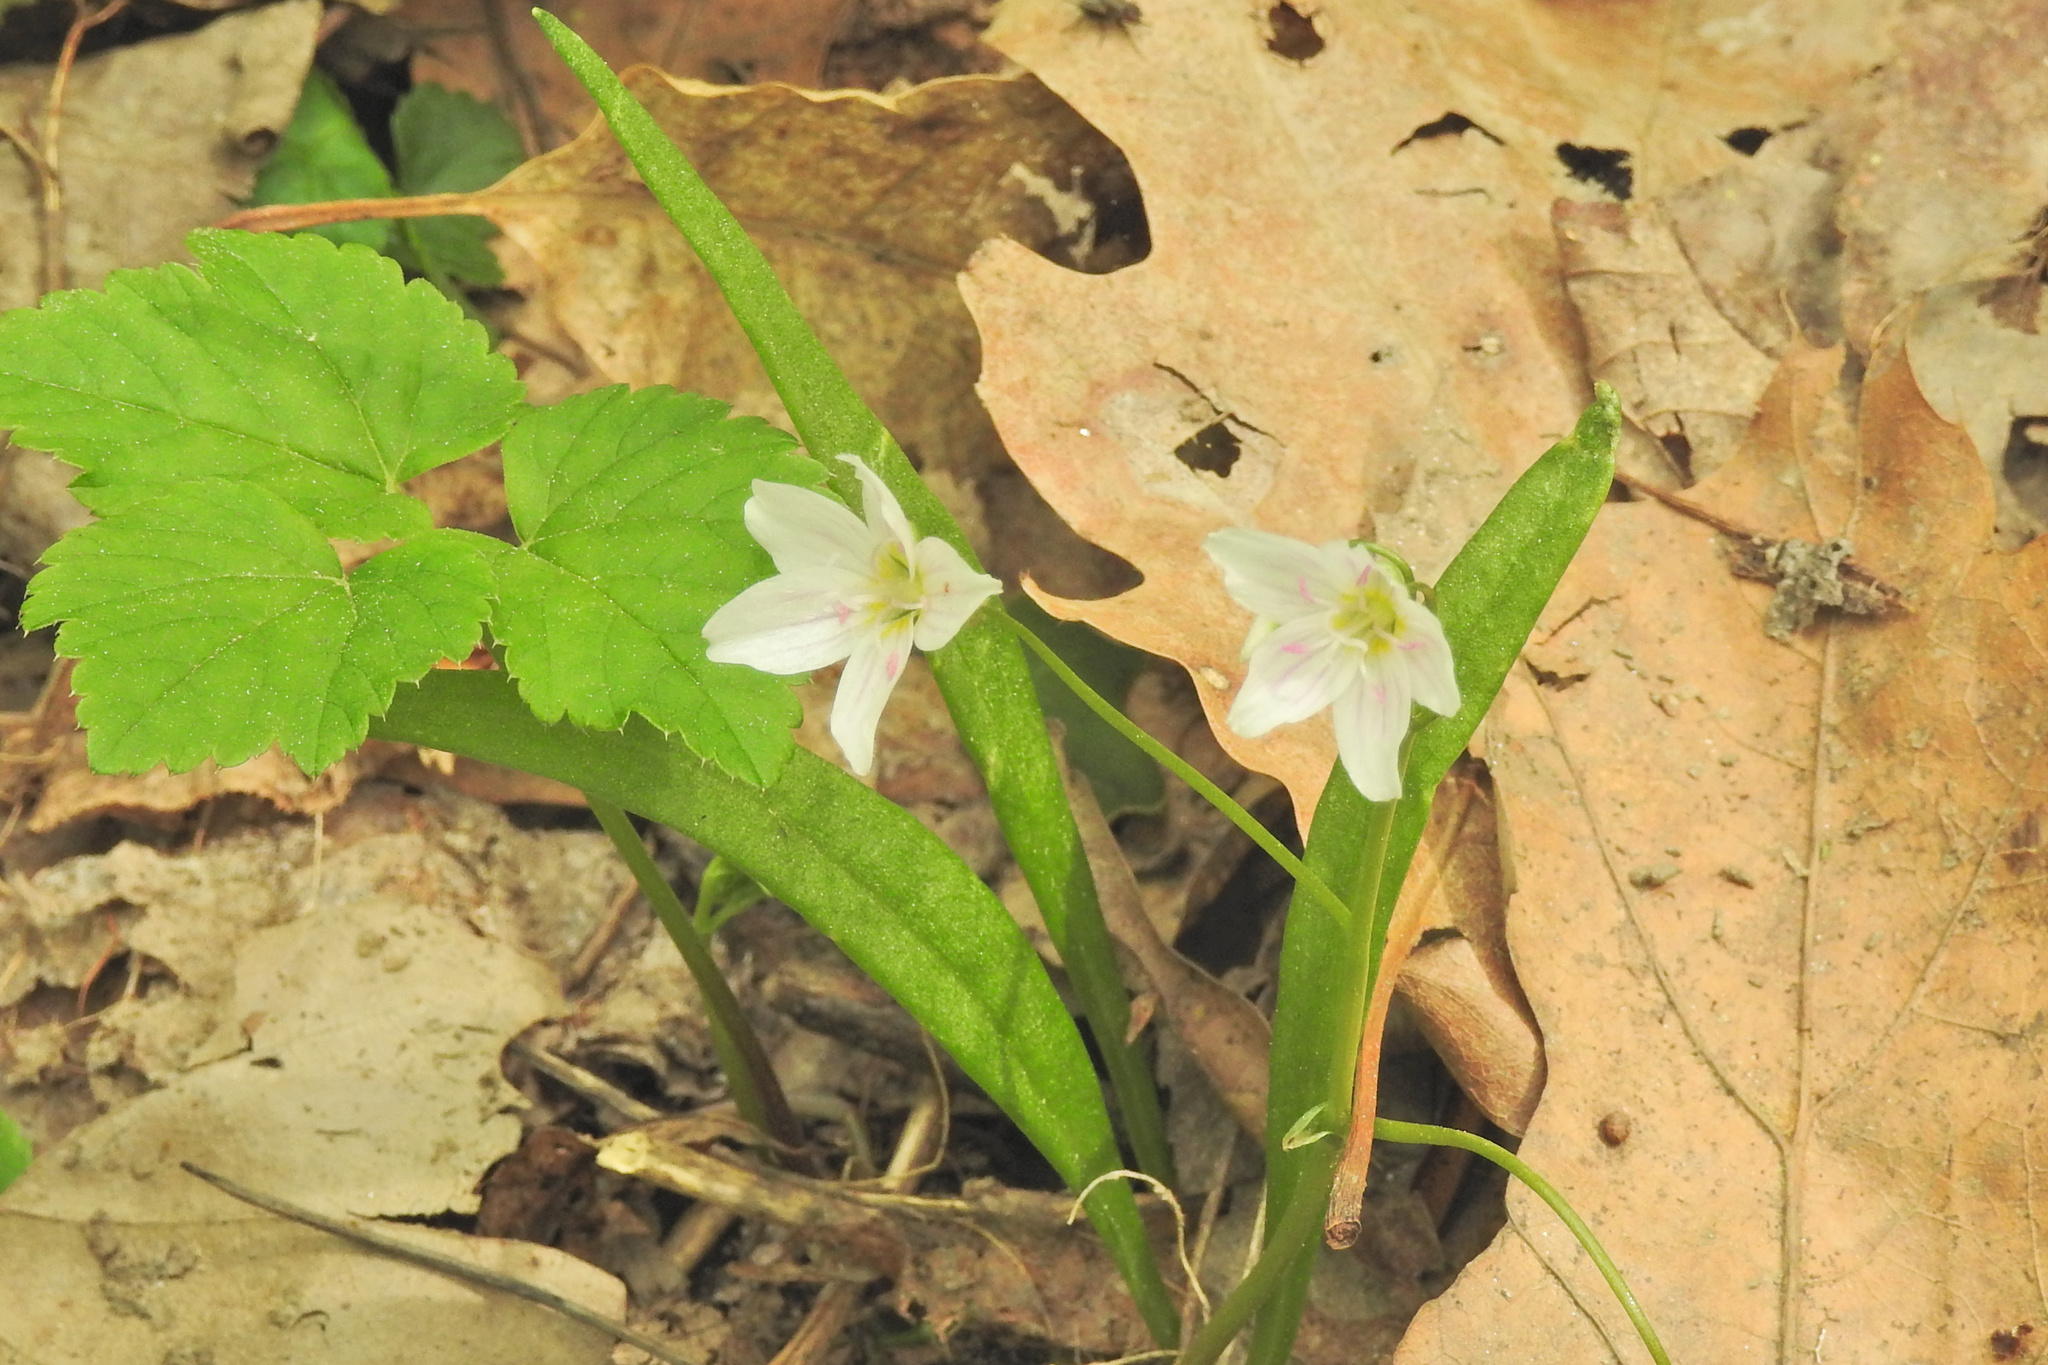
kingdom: Plantae
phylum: Tracheophyta
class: Magnoliopsida
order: Caryophyllales
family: Montiaceae
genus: Claytonia
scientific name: Claytonia virginica
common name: Virginia springbeauty
